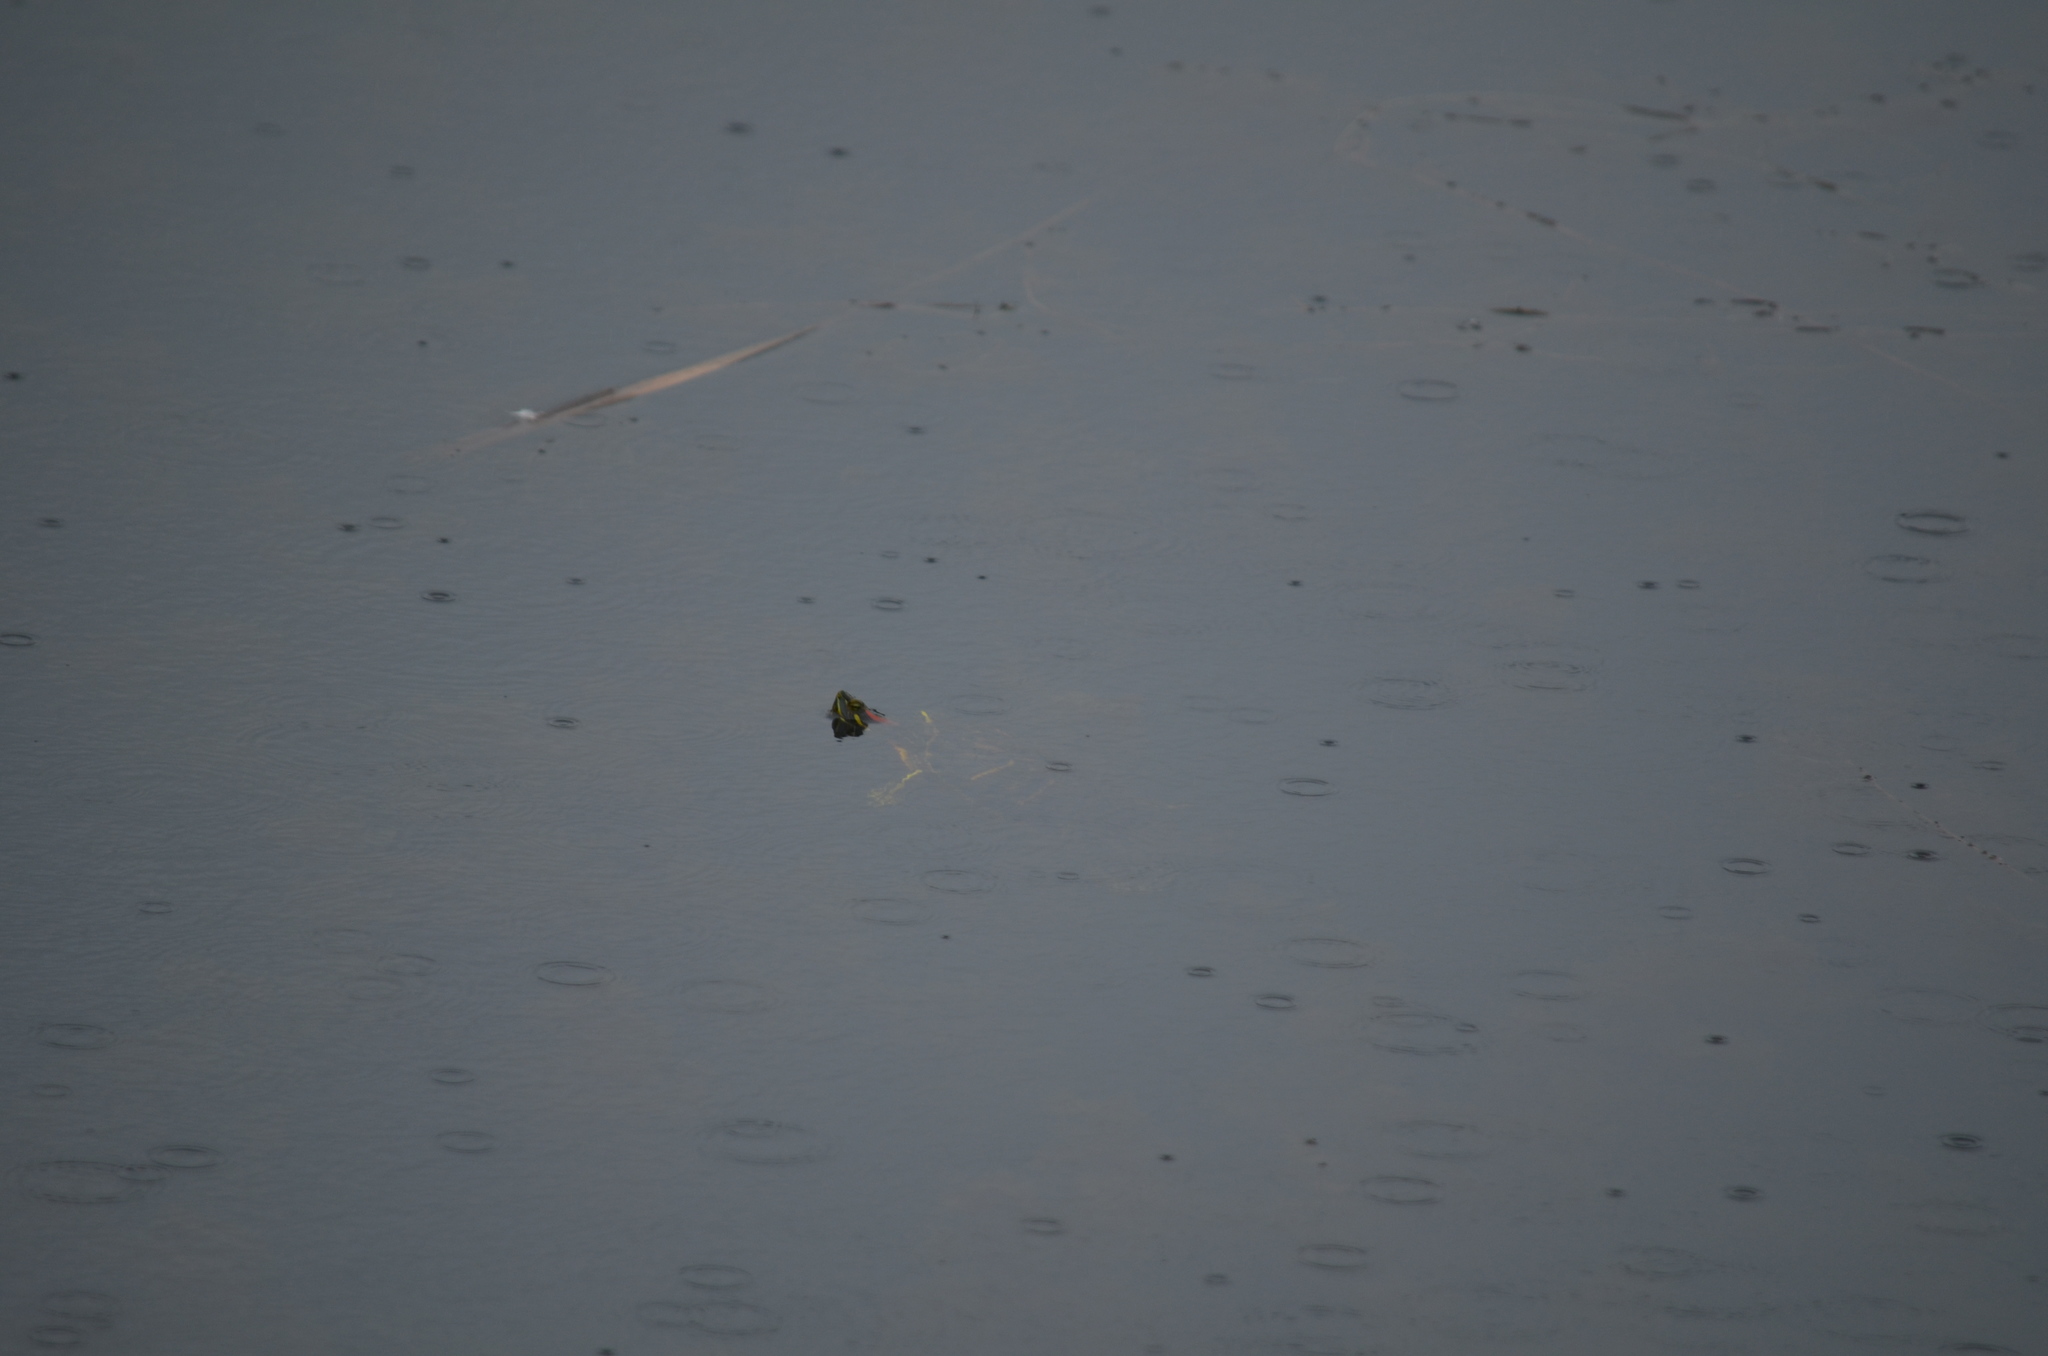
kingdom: Animalia
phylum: Chordata
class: Testudines
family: Emydidae
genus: Trachemys
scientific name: Trachemys scripta
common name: Slider
